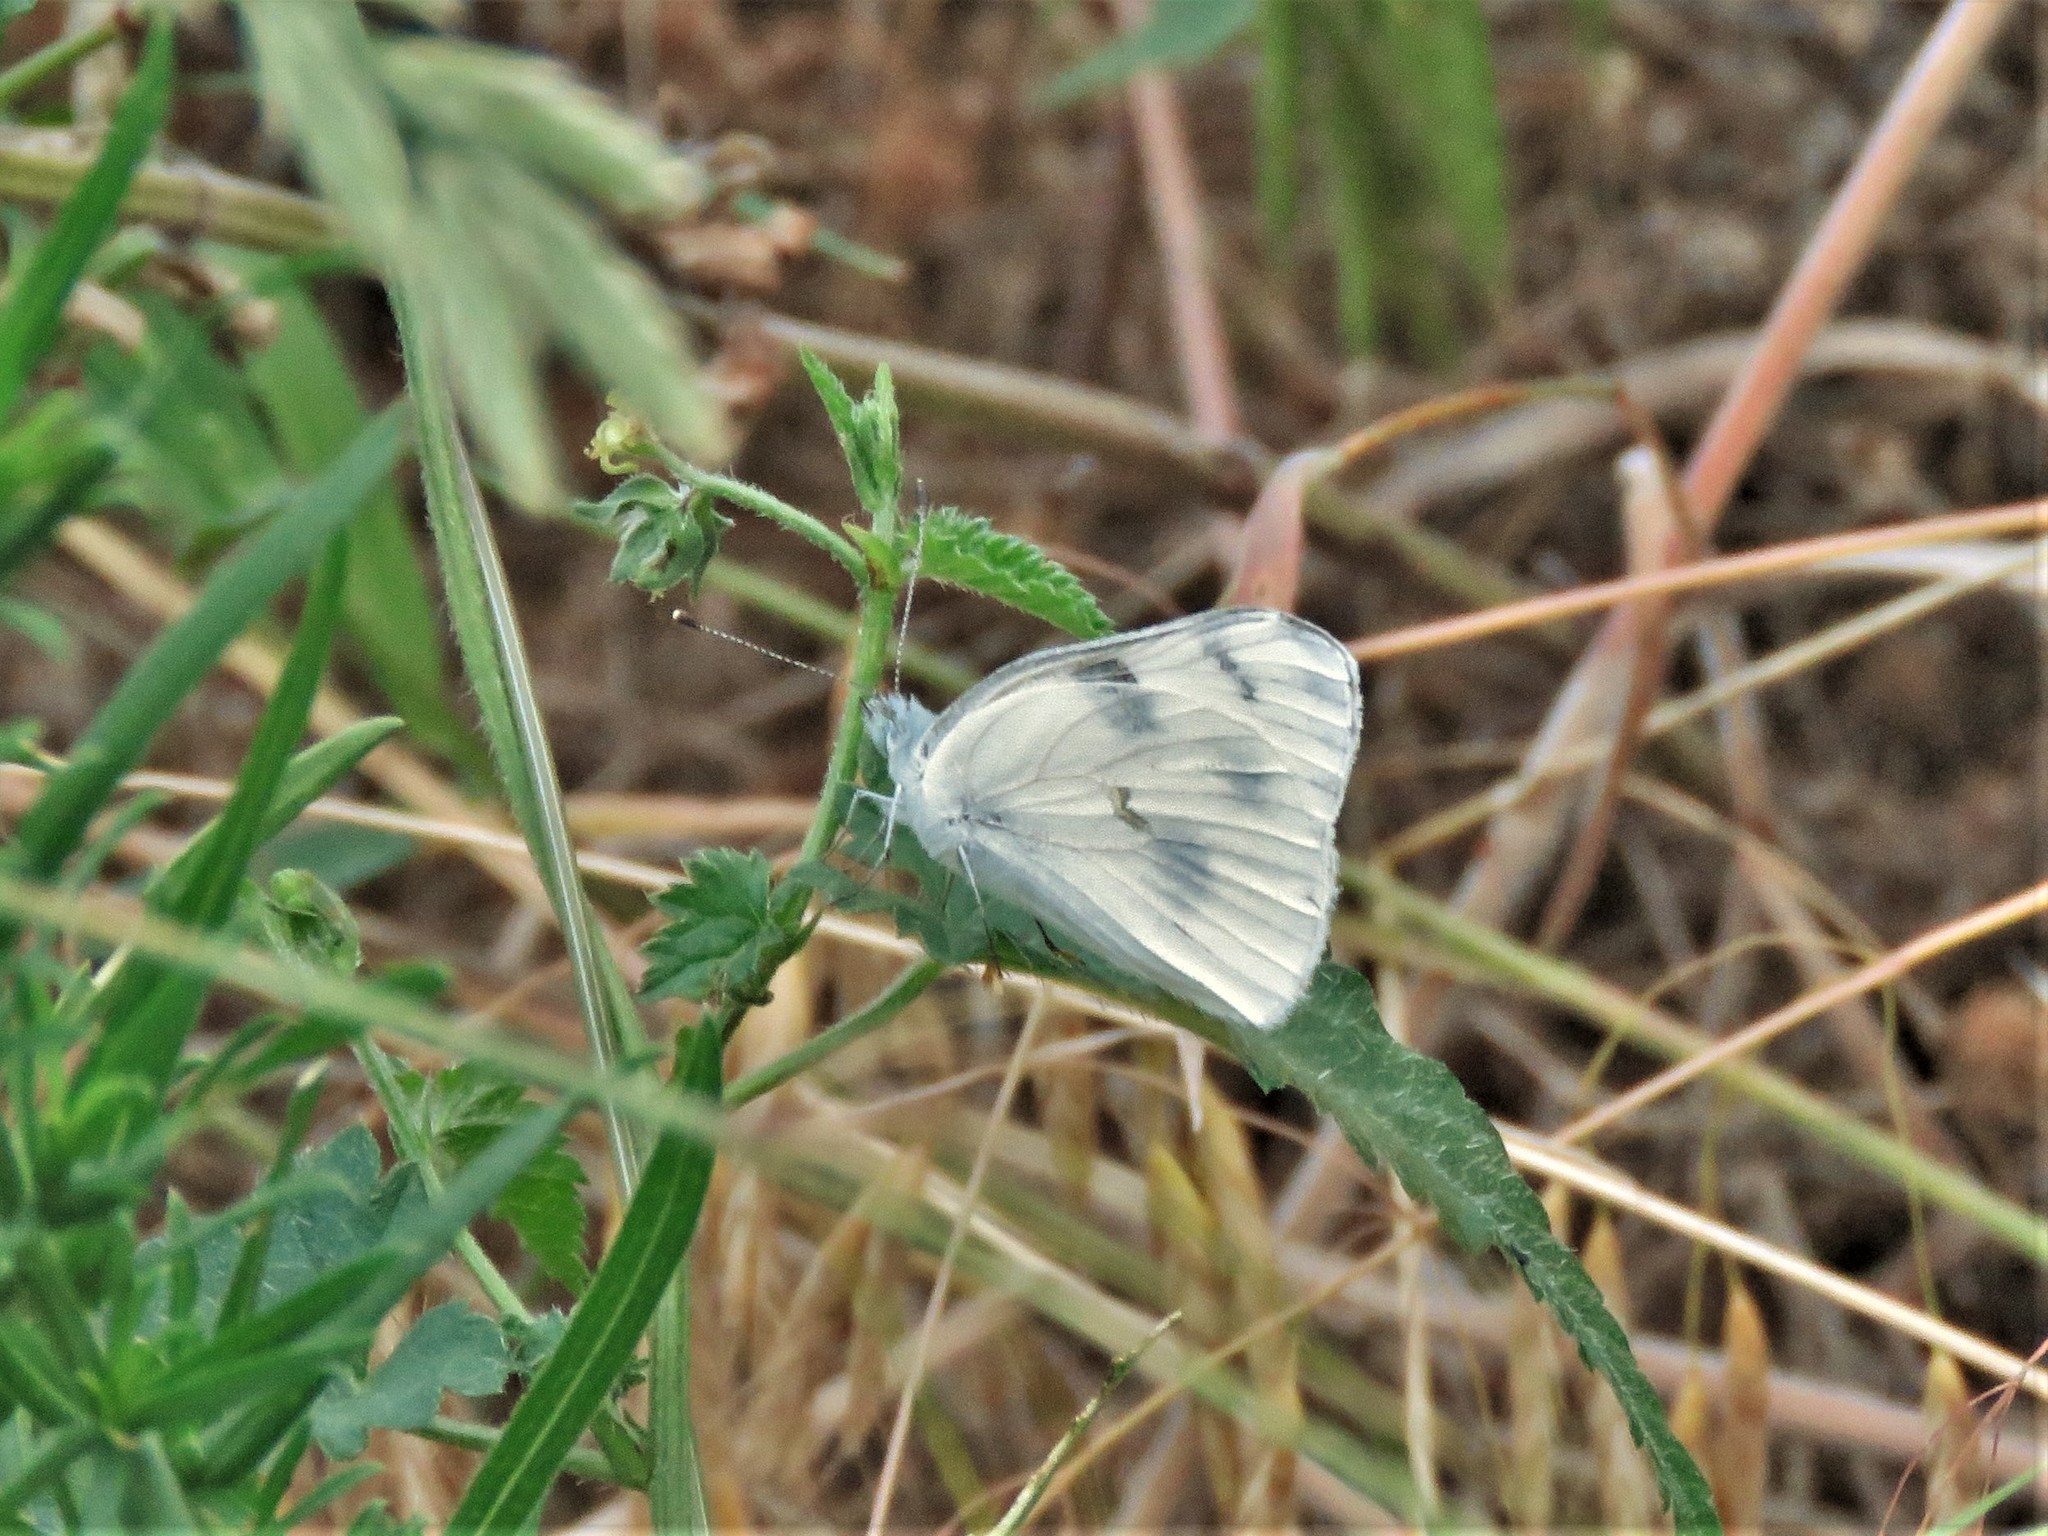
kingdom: Animalia
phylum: Arthropoda
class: Insecta
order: Lepidoptera
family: Pieridae
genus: Pontia
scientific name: Pontia protodice
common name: Checkered white
